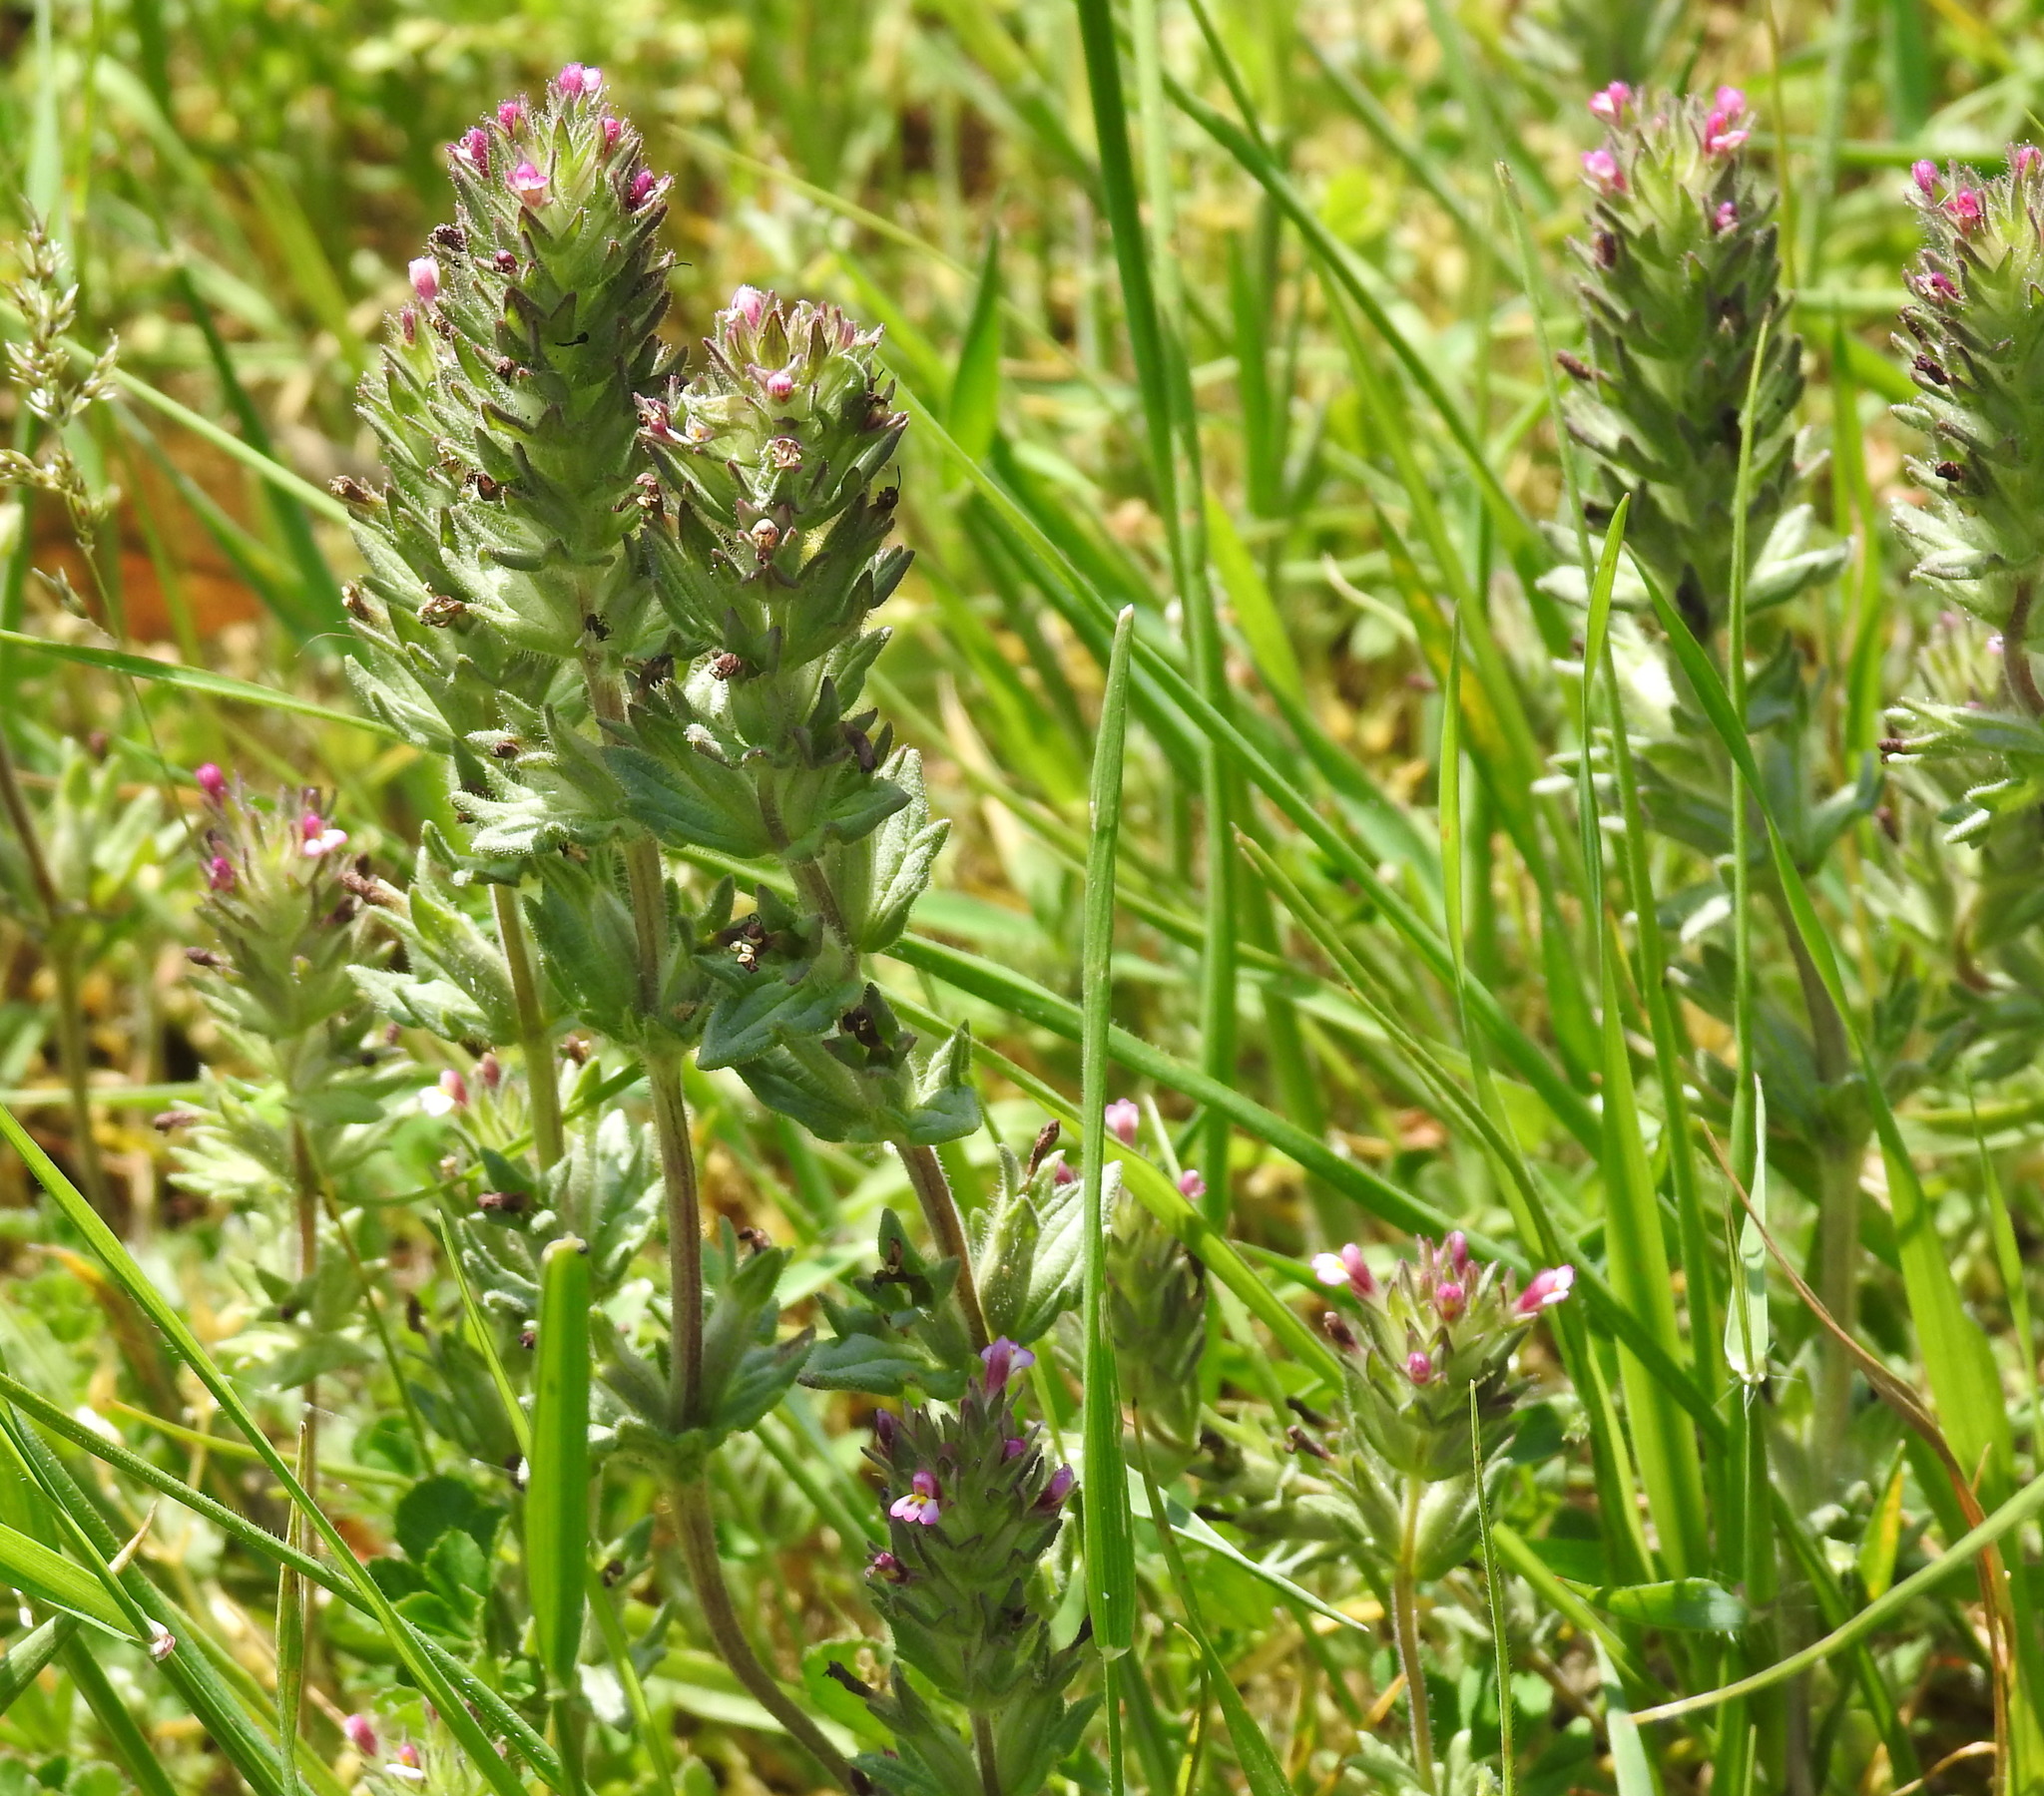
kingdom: Plantae
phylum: Tracheophyta
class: Magnoliopsida
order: Lamiales
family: Orobanchaceae
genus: Parentucellia
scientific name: Parentucellia latifolia
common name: Broadleaf glandweed
